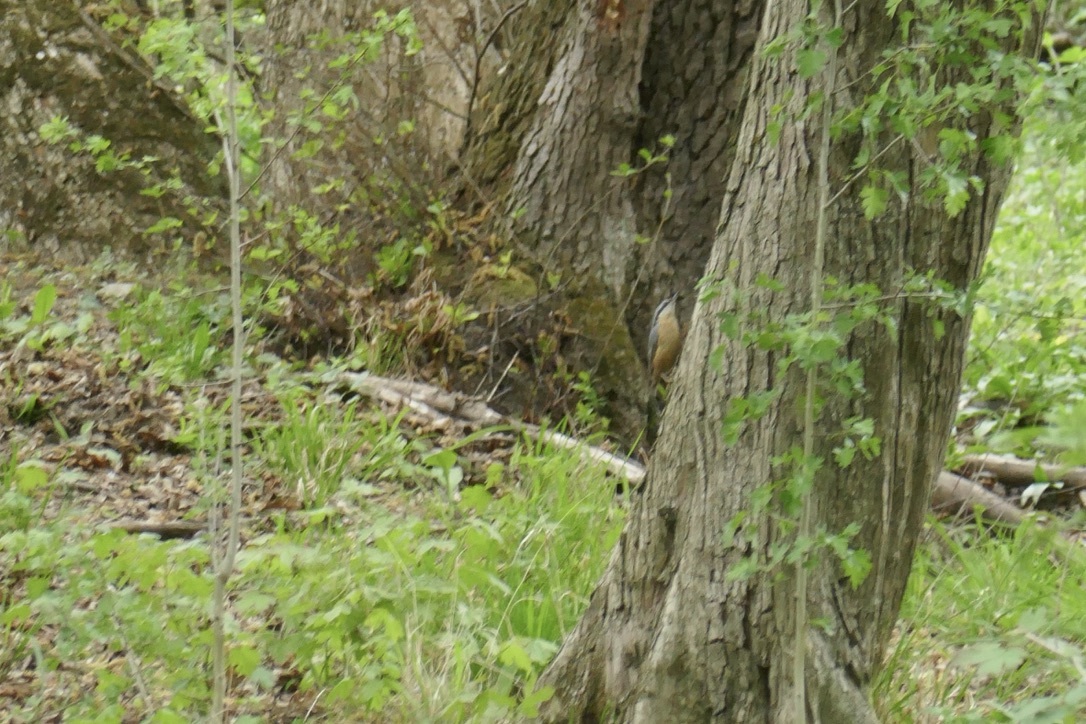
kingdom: Animalia
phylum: Chordata
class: Aves
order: Passeriformes
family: Sittidae
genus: Sitta
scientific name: Sitta europaea
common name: Eurasian nuthatch
